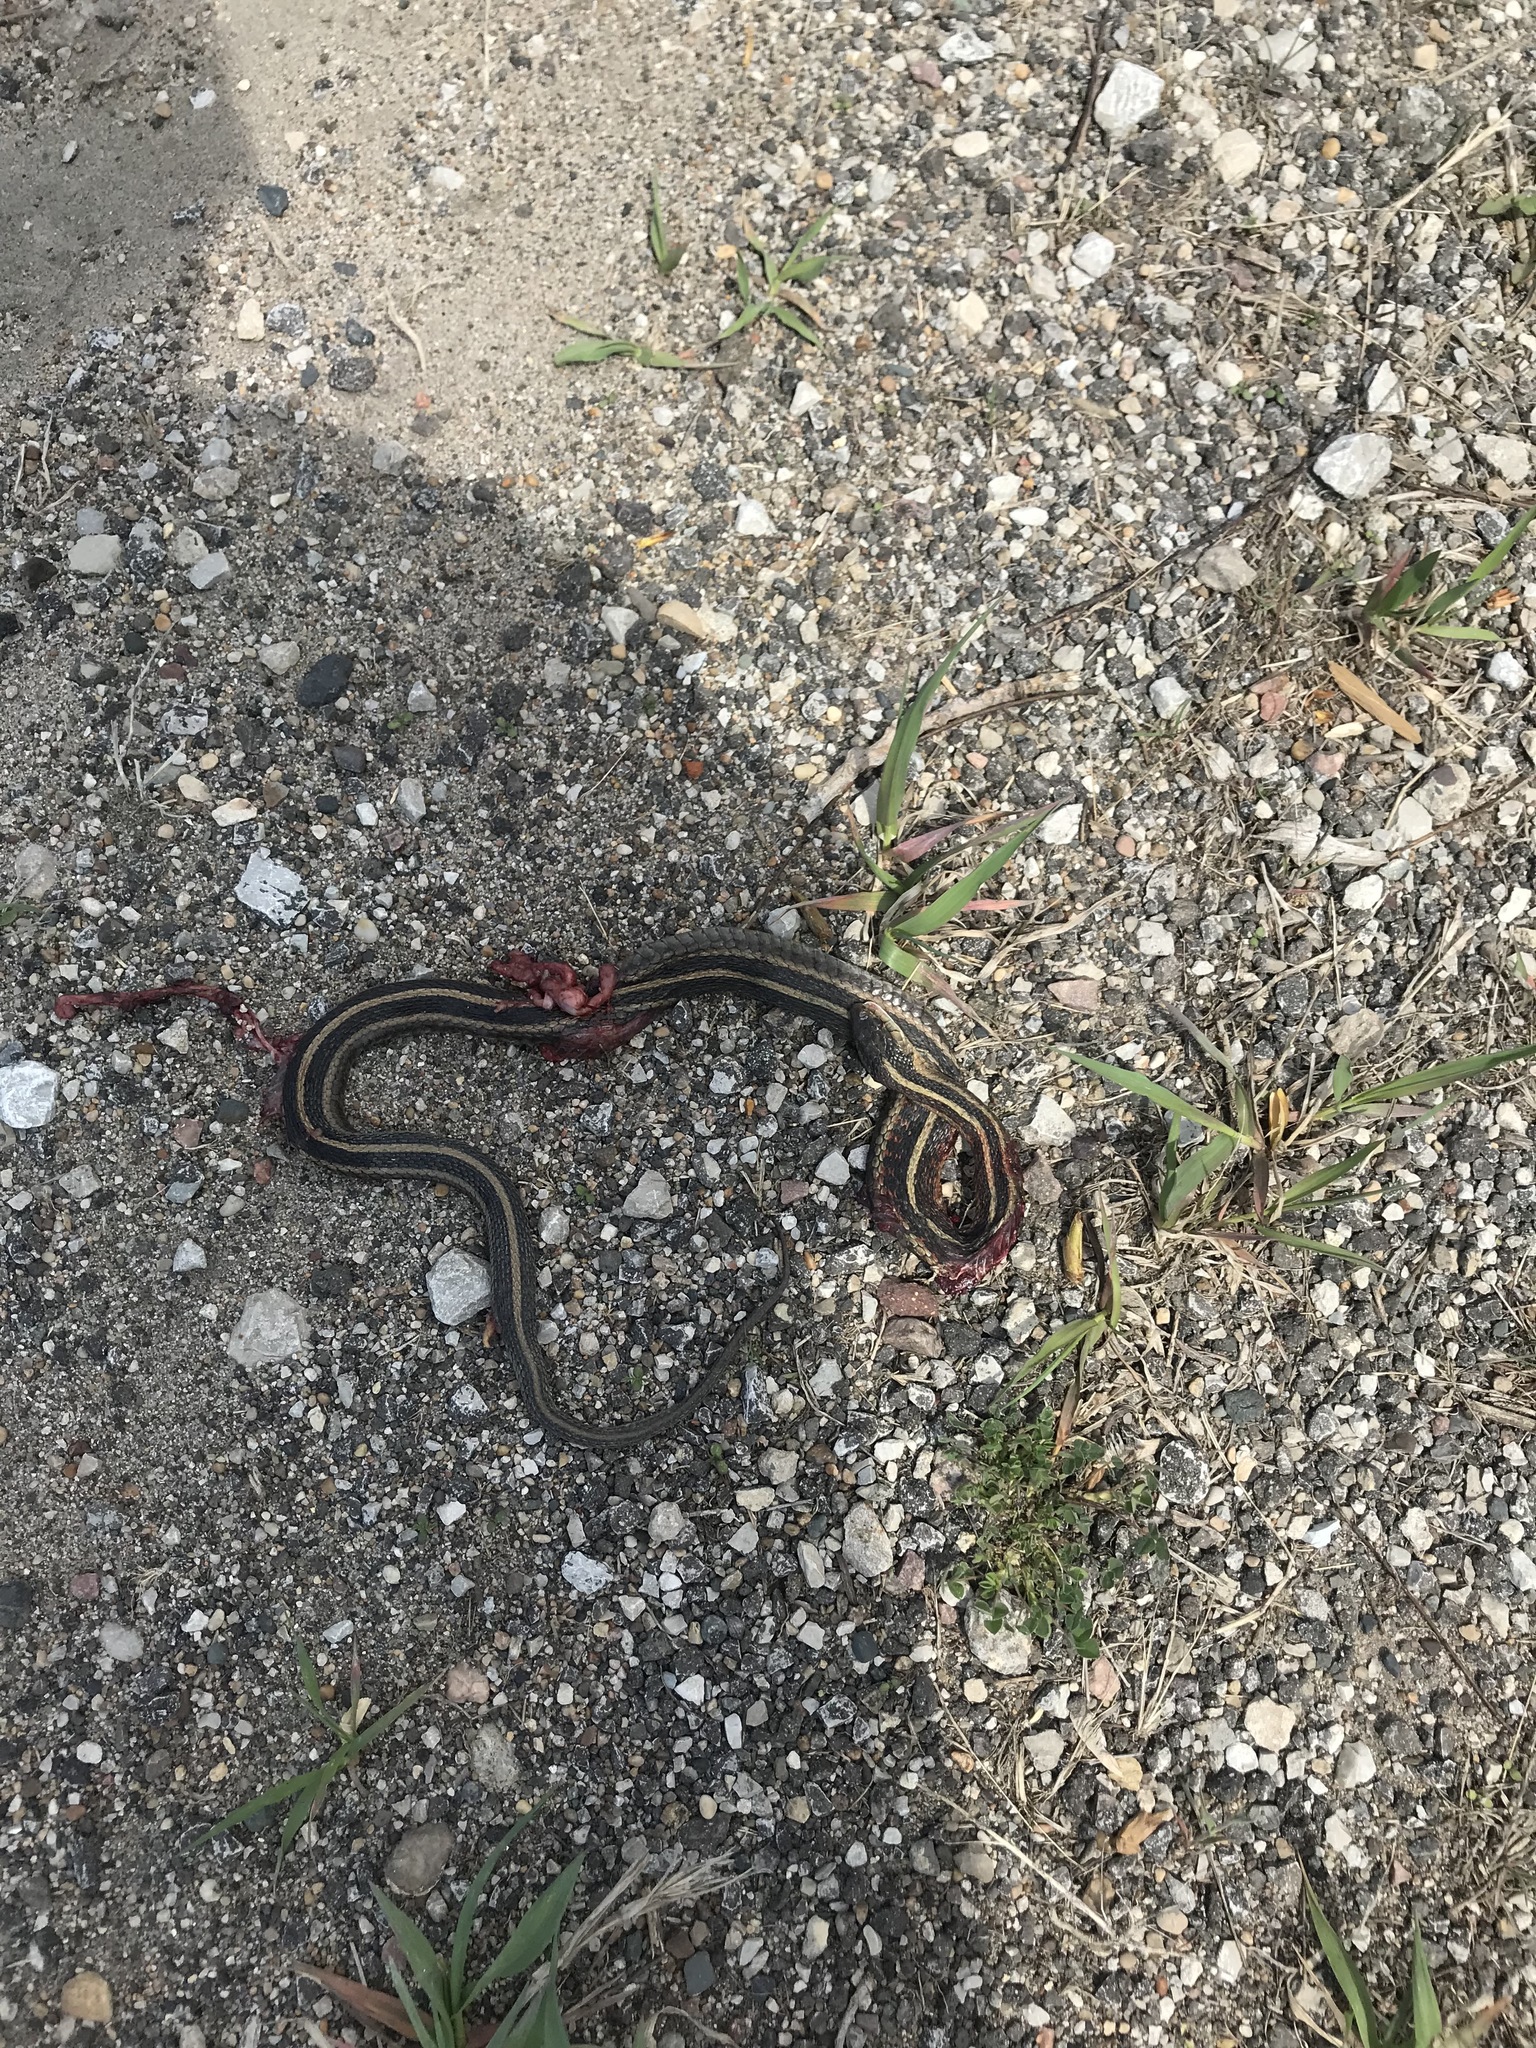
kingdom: Animalia
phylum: Chordata
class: Squamata
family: Colubridae
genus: Thamnophis
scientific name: Thamnophis sirtalis
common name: Common garter snake
